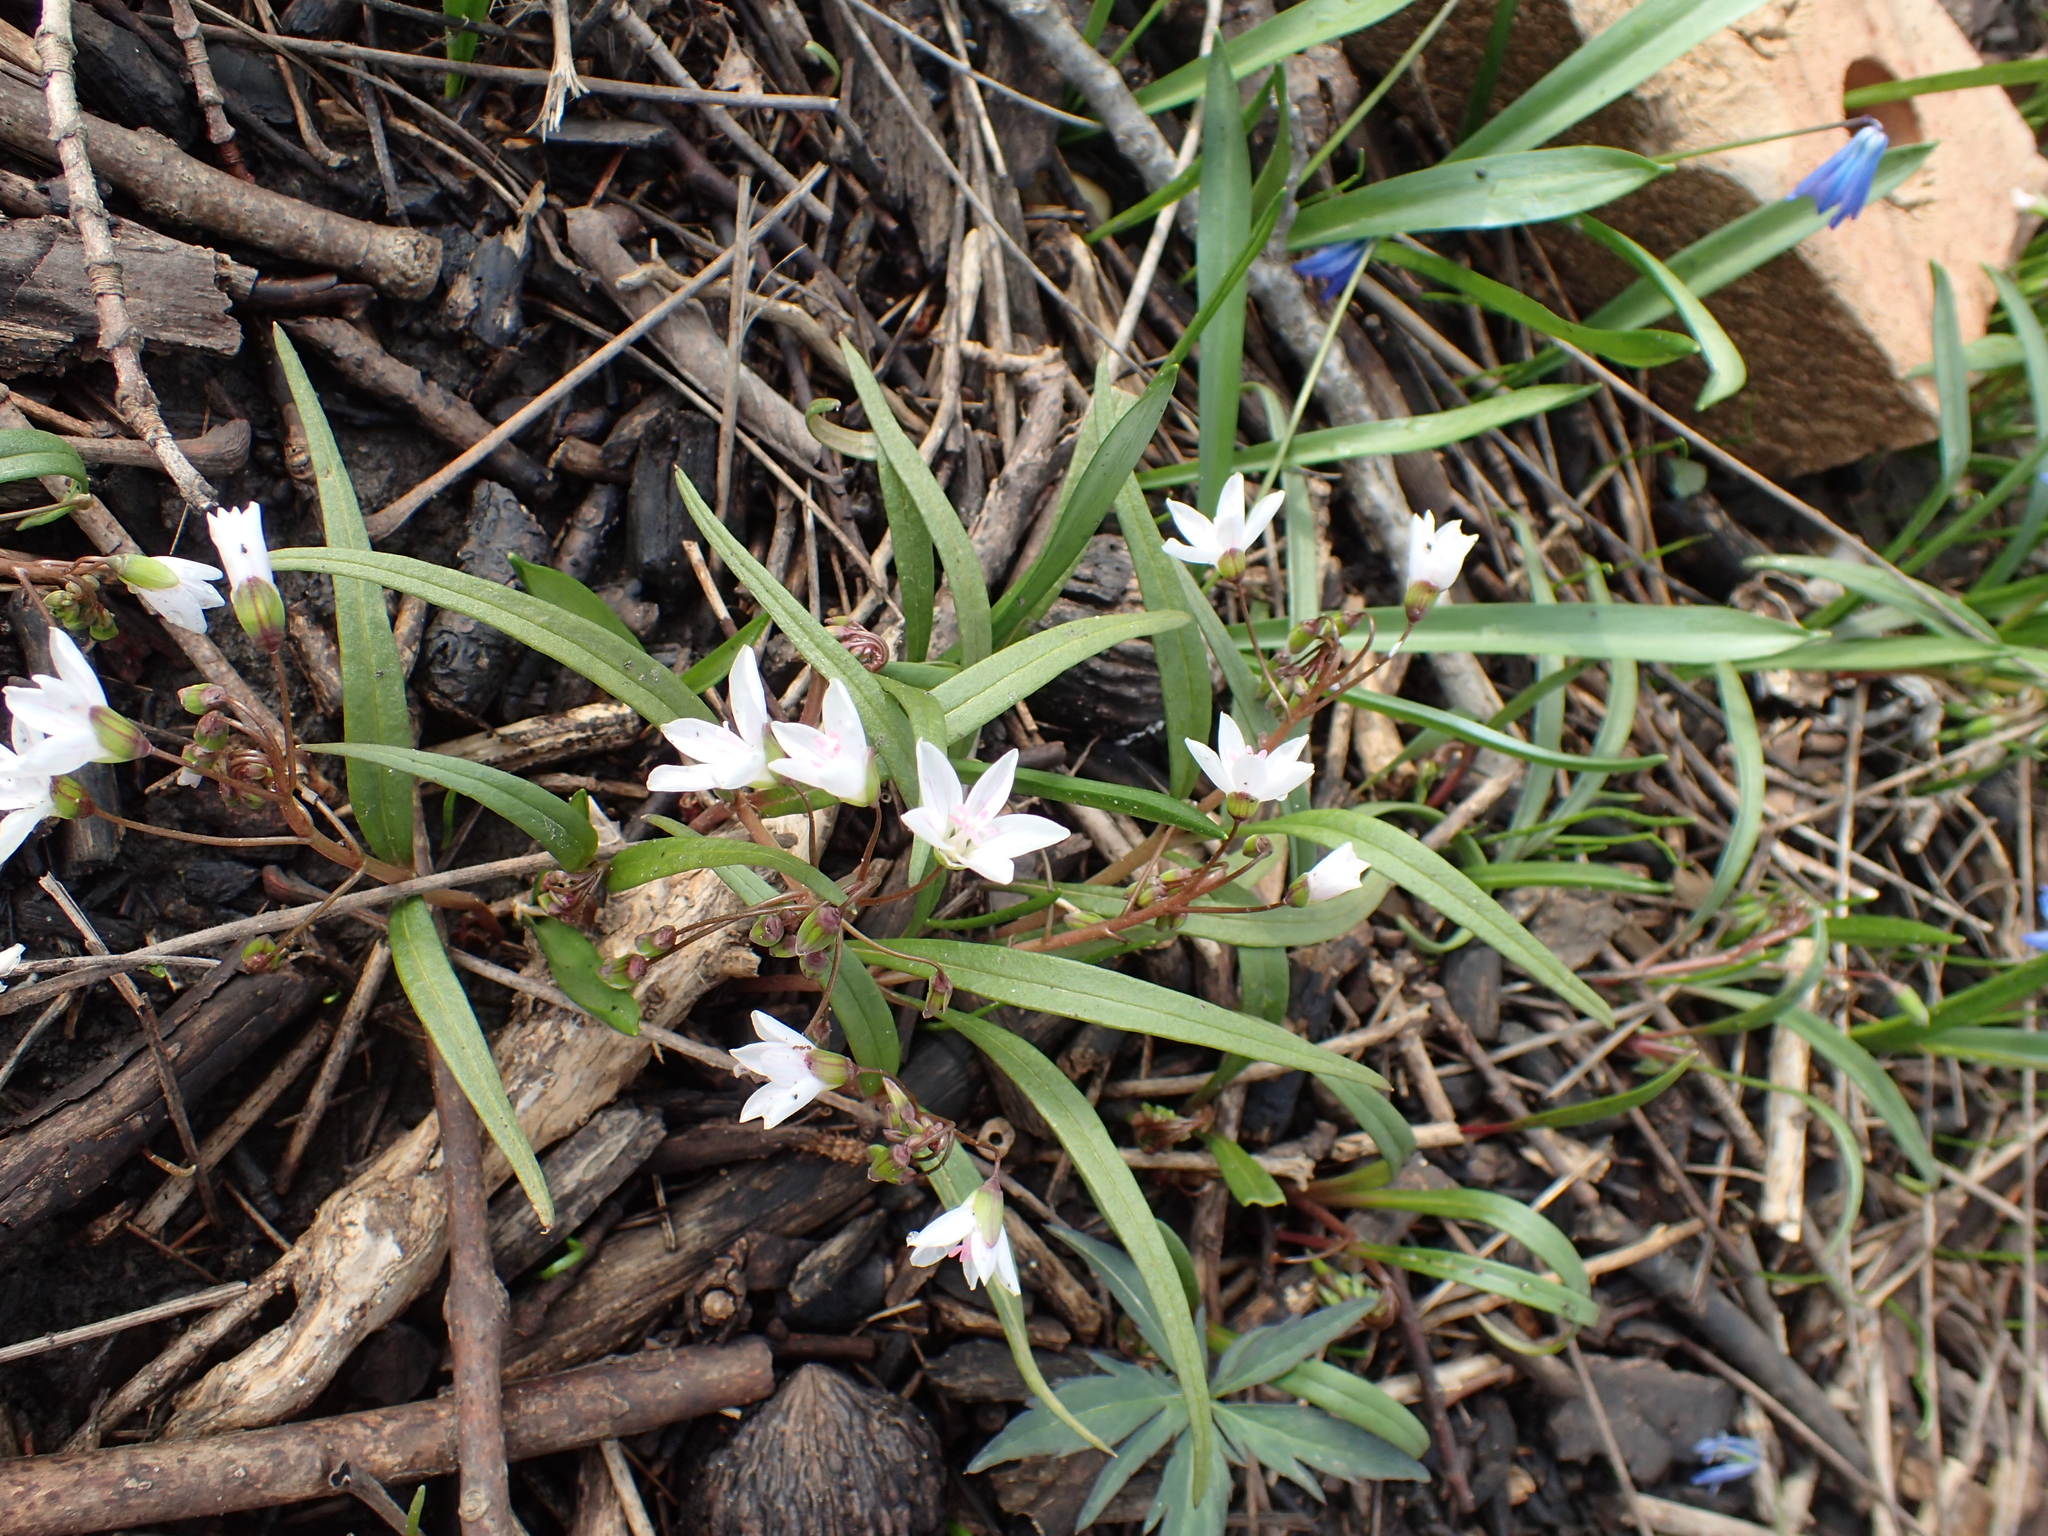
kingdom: Plantae
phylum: Tracheophyta
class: Magnoliopsida
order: Caryophyllales
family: Montiaceae
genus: Claytonia
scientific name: Claytonia virginica
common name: Virginia springbeauty
